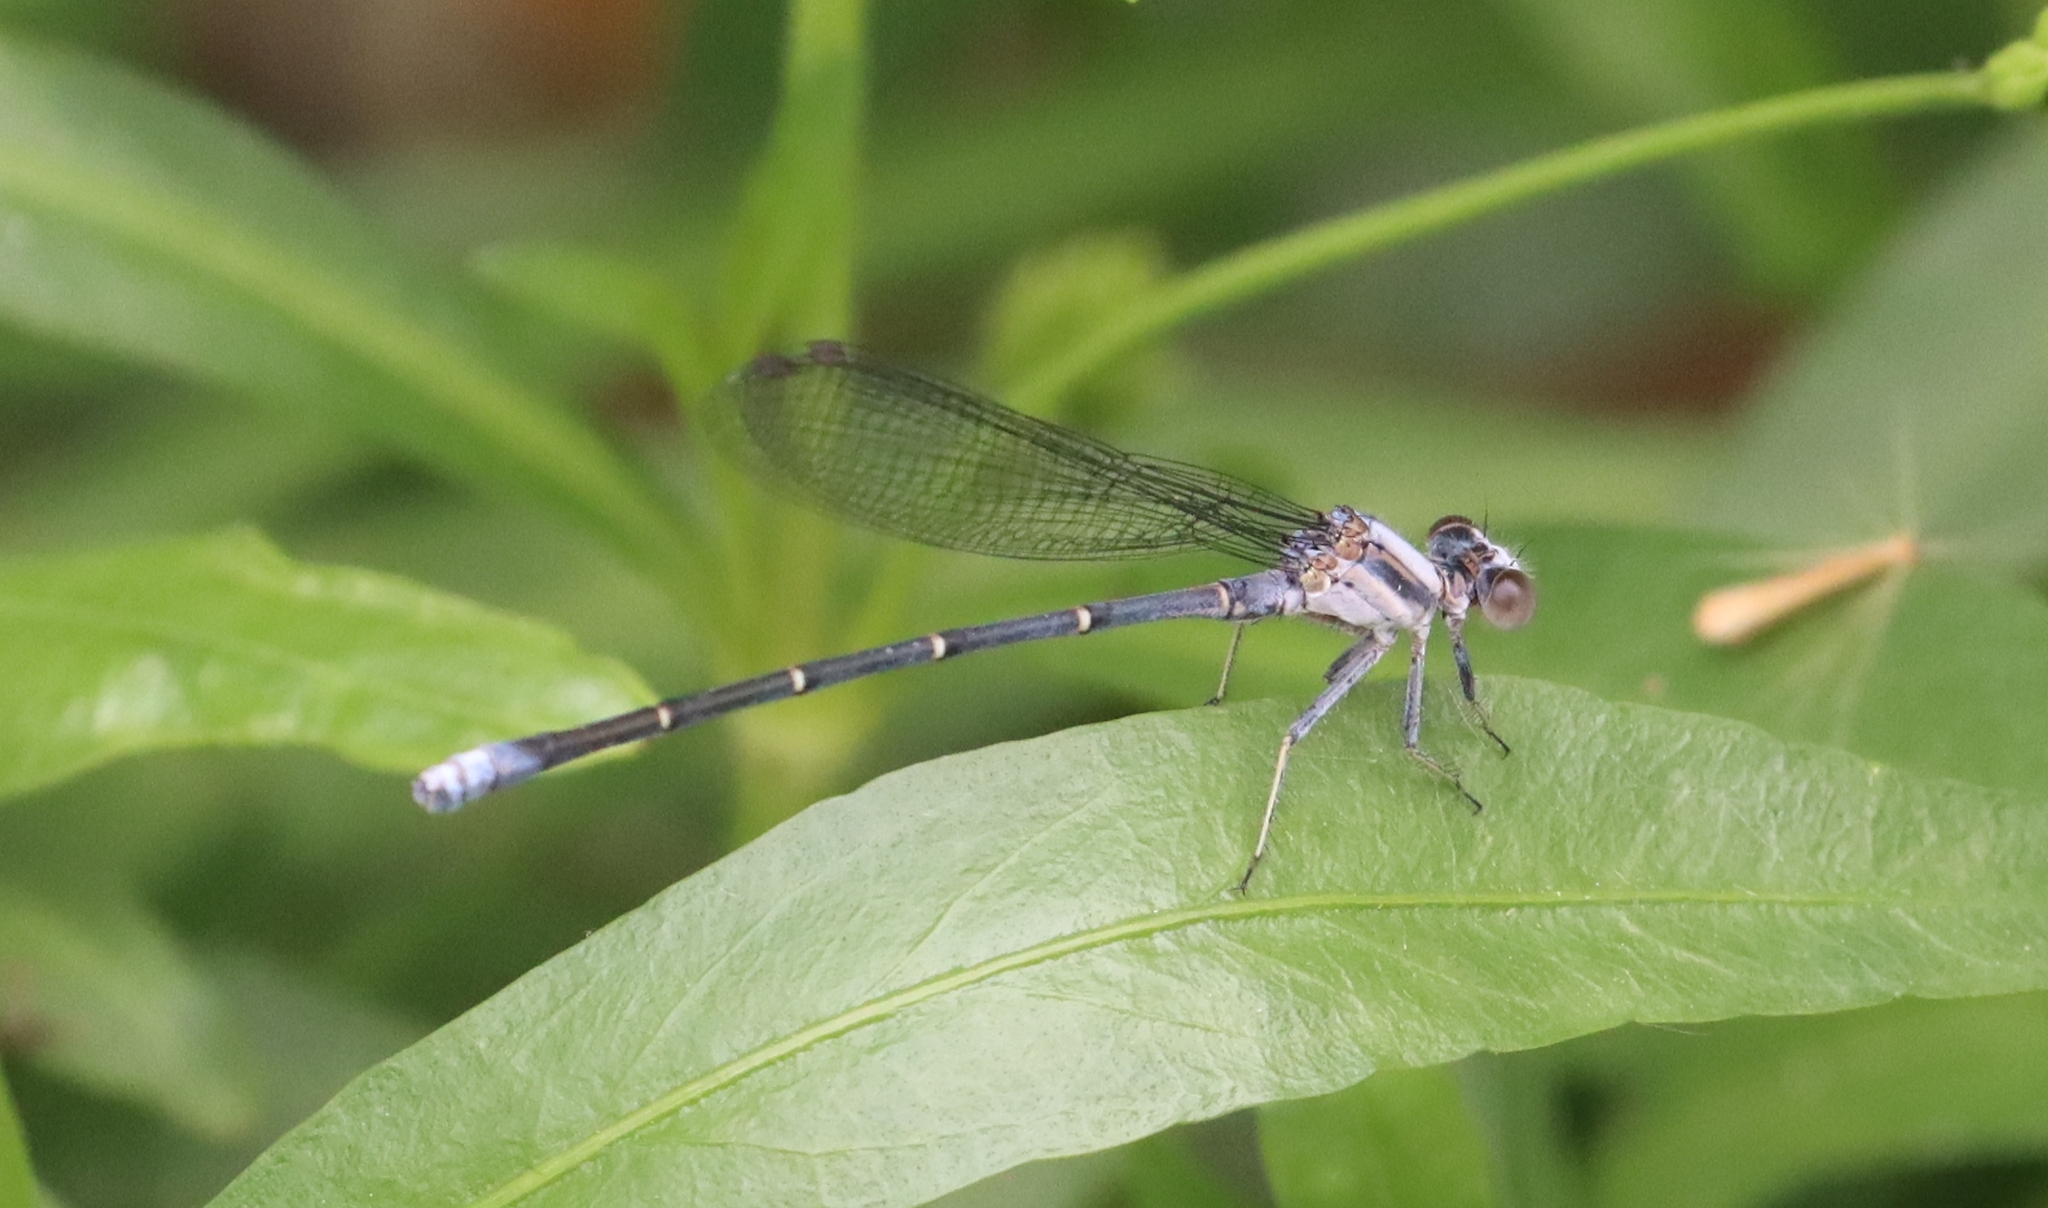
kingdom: Animalia
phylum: Arthropoda
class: Insecta
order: Odonata
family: Coenagrionidae
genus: Argia
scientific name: Argia moesta
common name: Powdered dancer
